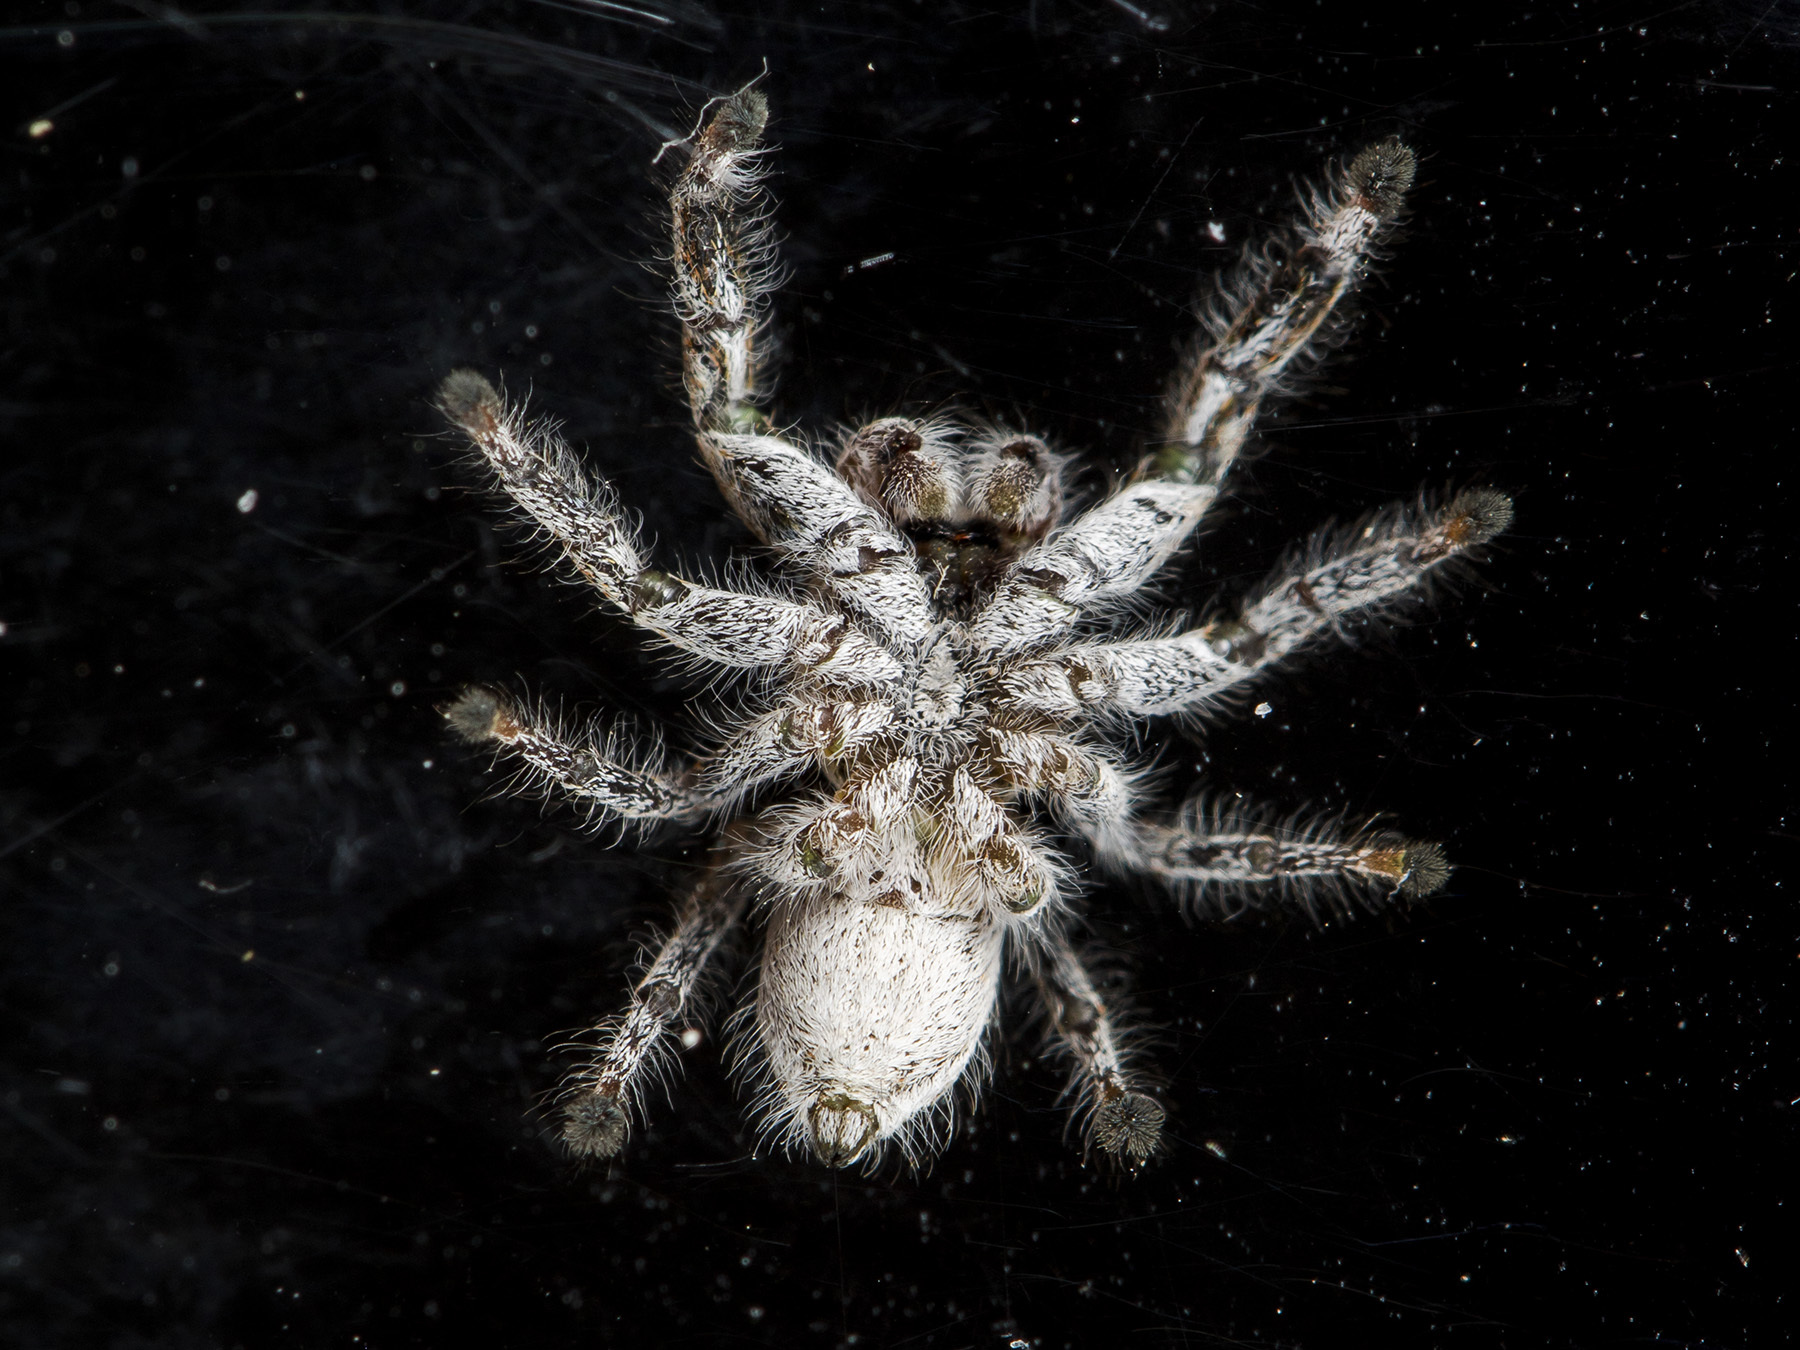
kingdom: Animalia
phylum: Arthropoda
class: Arachnida
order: Araneae
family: Salticidae
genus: Pseudomogrus
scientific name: Pseudomogrus vittatus
